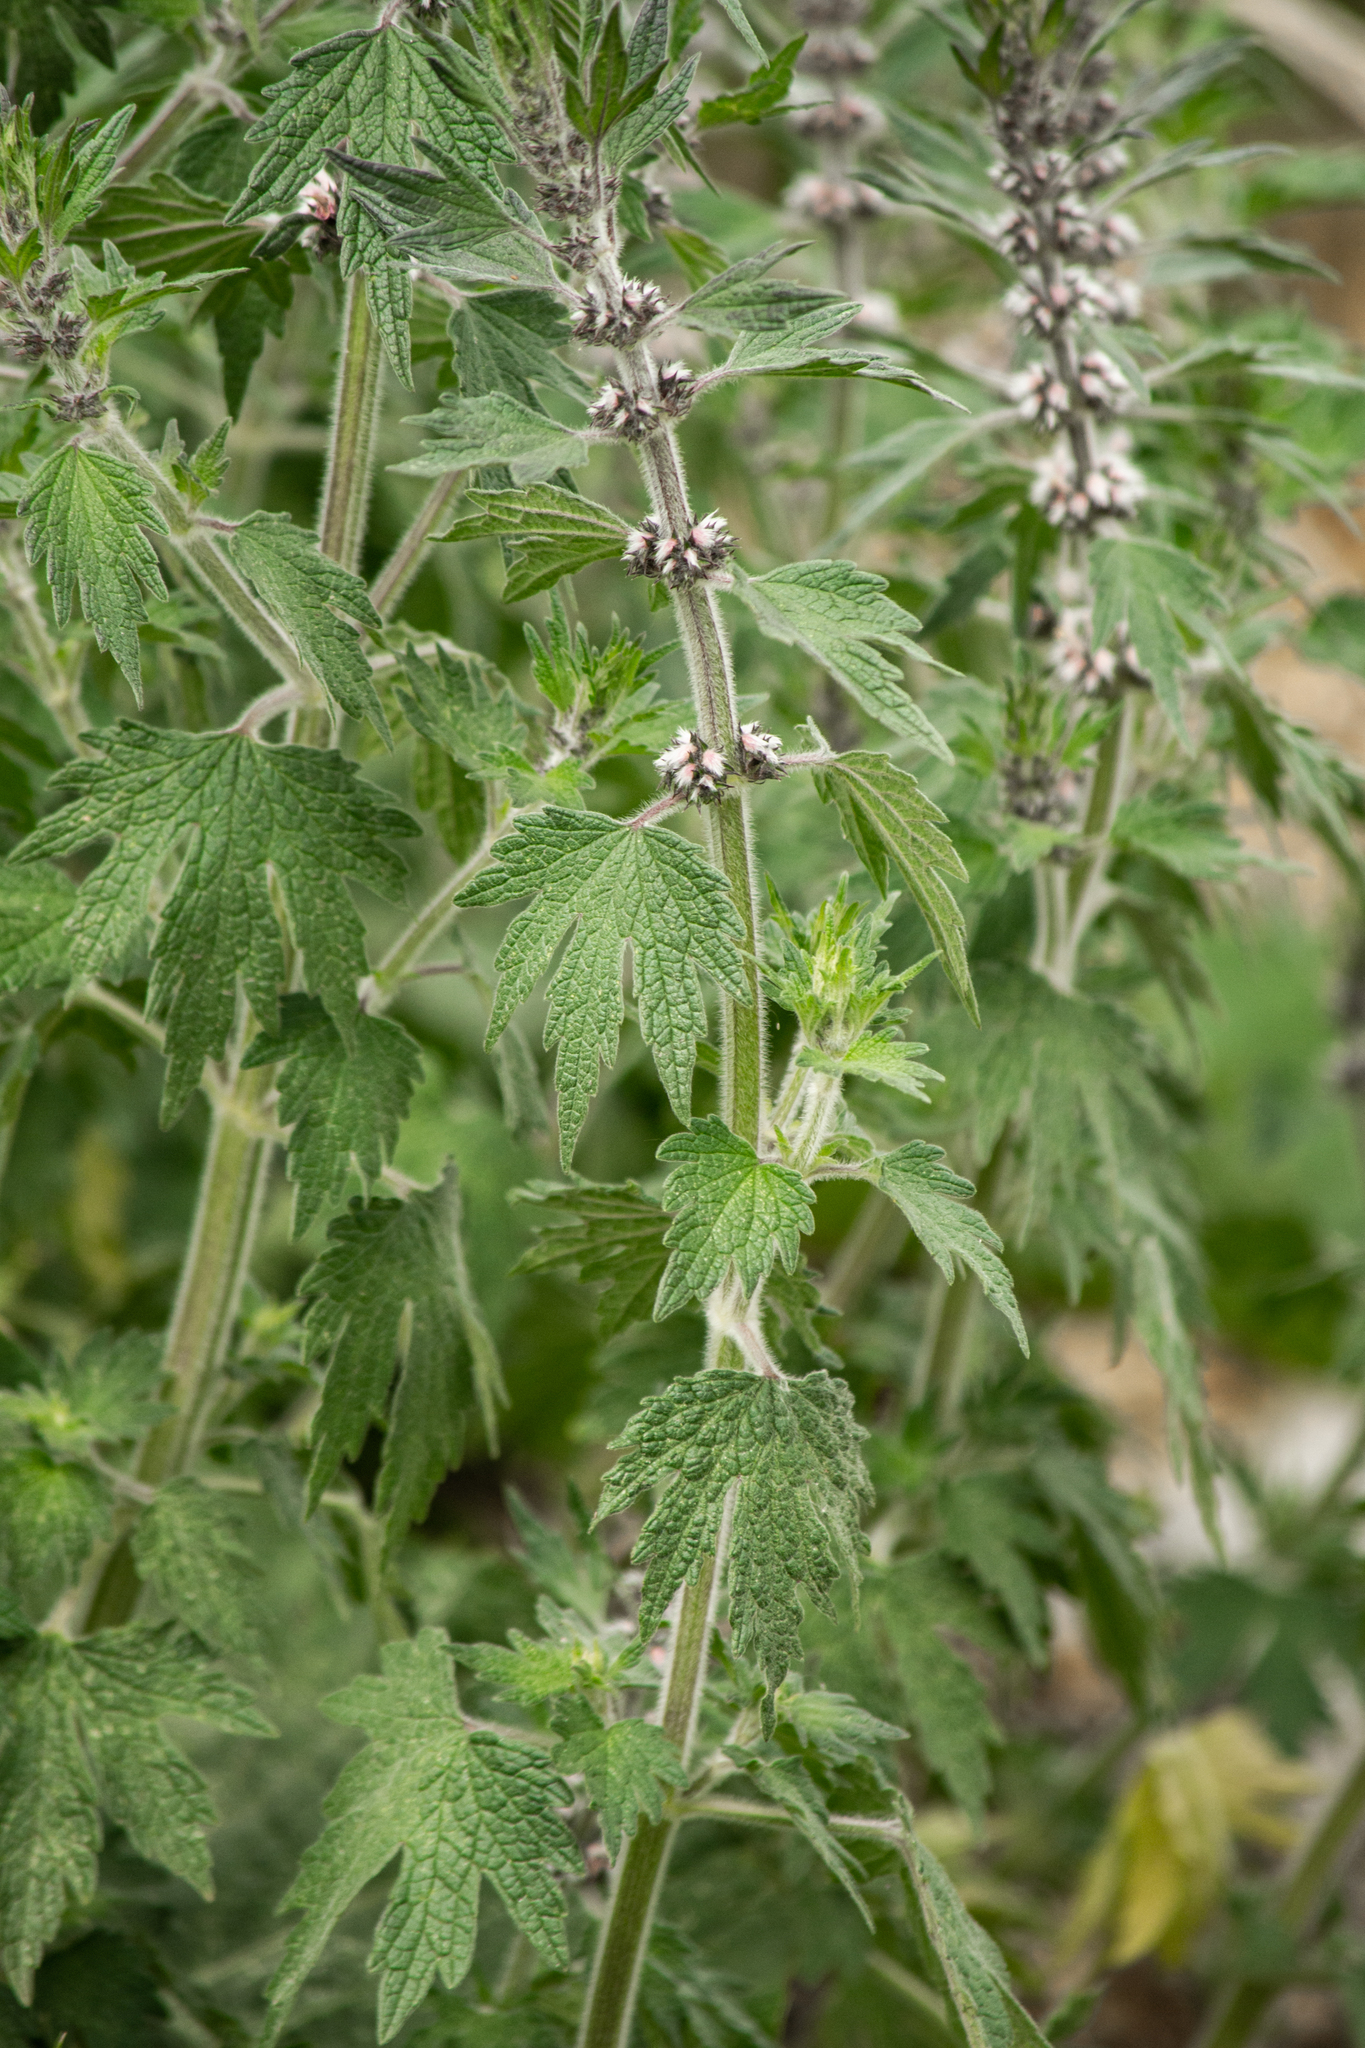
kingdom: Plantae
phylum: Tracheophyta
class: Magnoliopsida
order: Lamiales
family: Lamiaceae
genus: Leonurus
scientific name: Leonurus quinquelobatus
